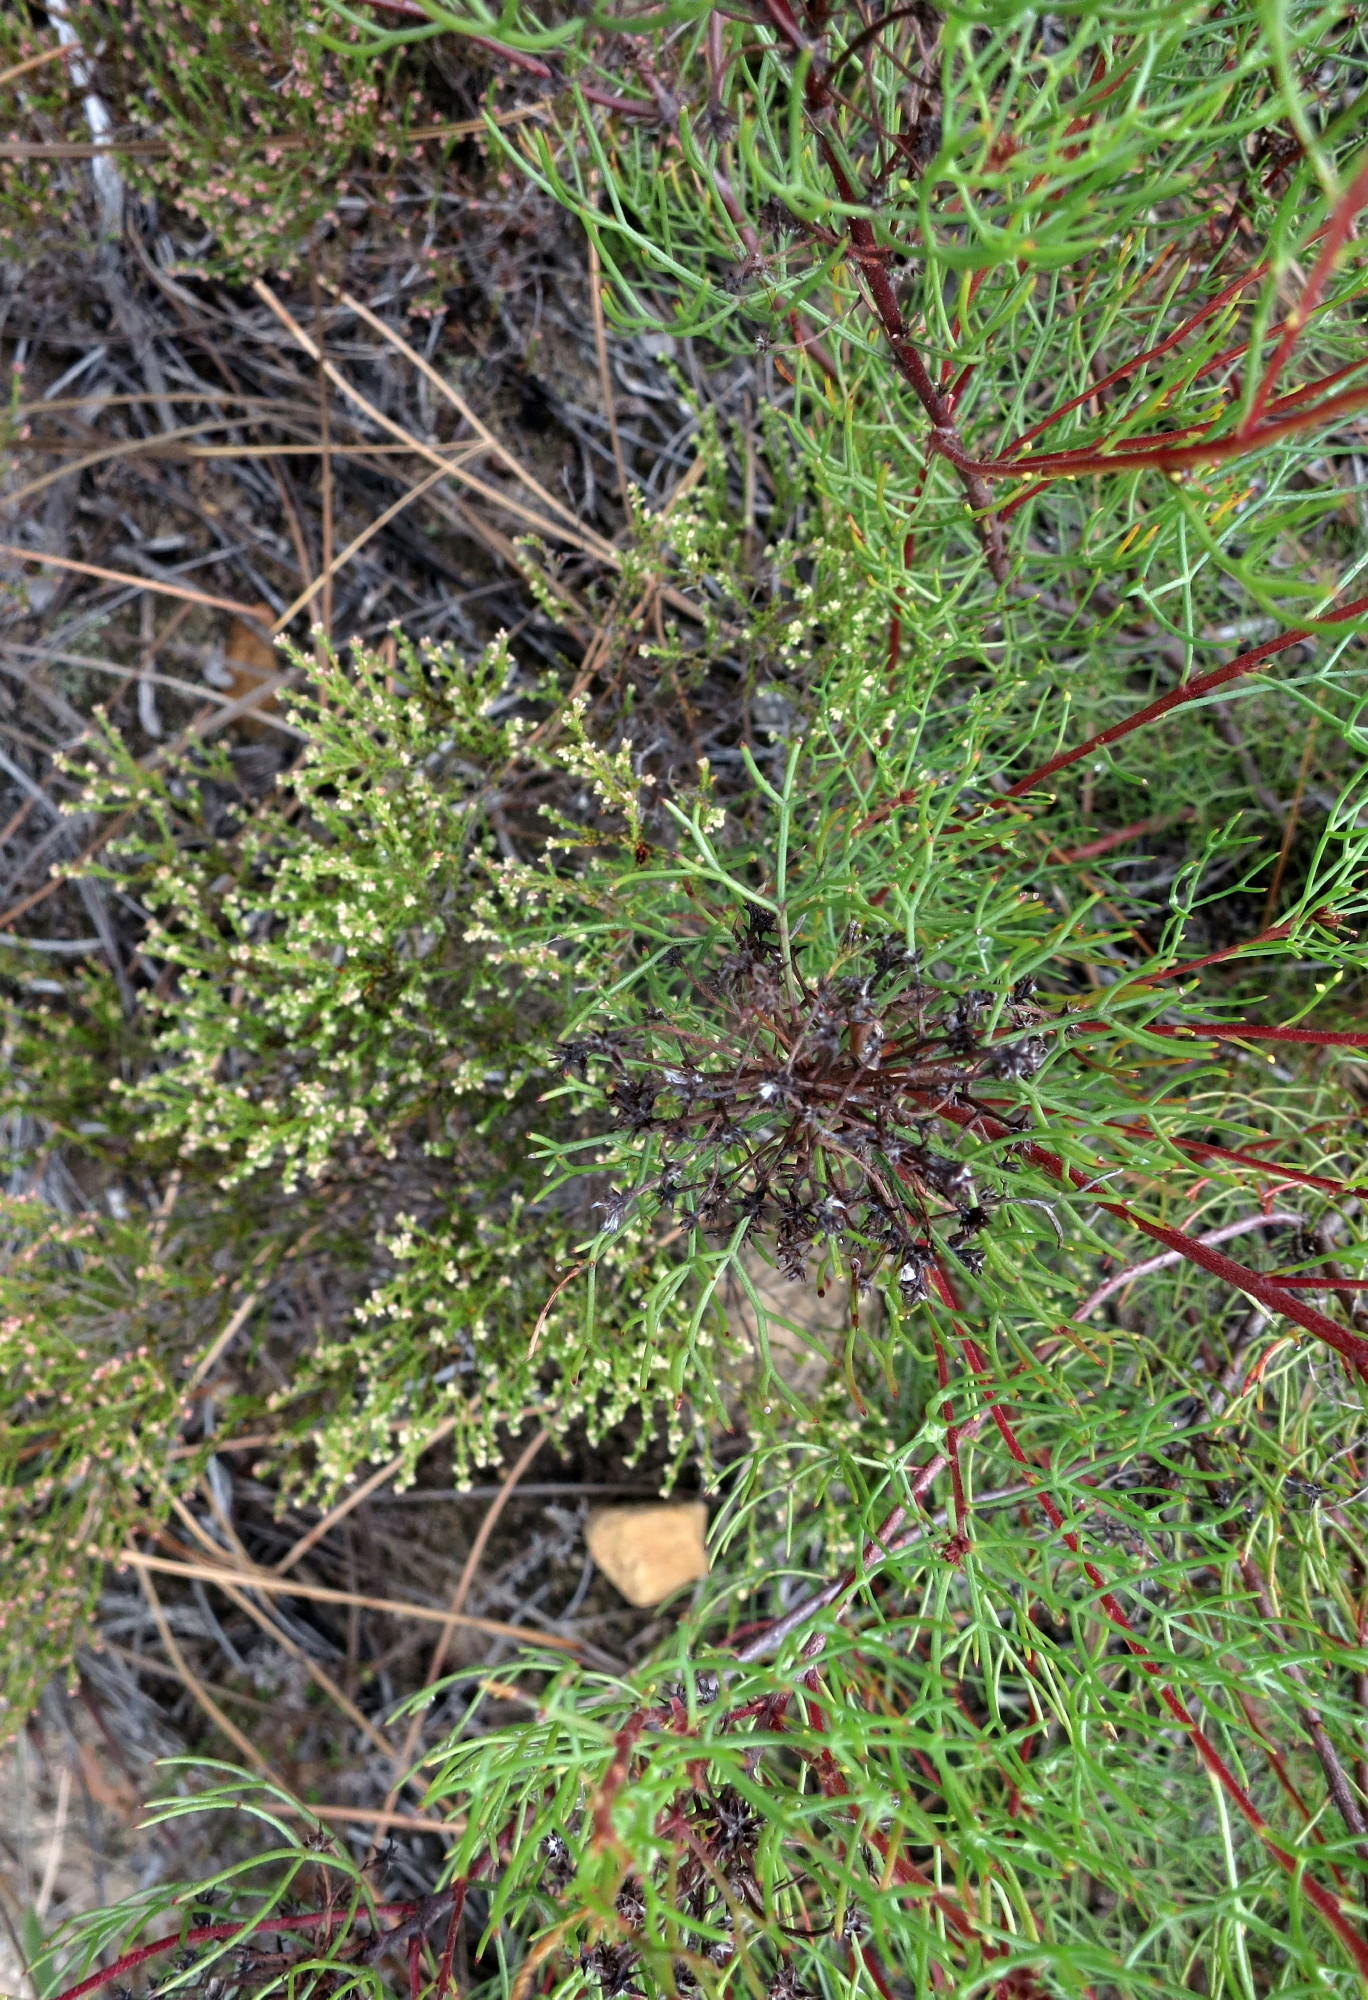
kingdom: Plantae
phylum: Tracheophyta
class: Magnoliopsida
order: Proteales
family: Proteaceae
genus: Serruria
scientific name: Serruria fasciflora
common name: Common pin spiderhead
